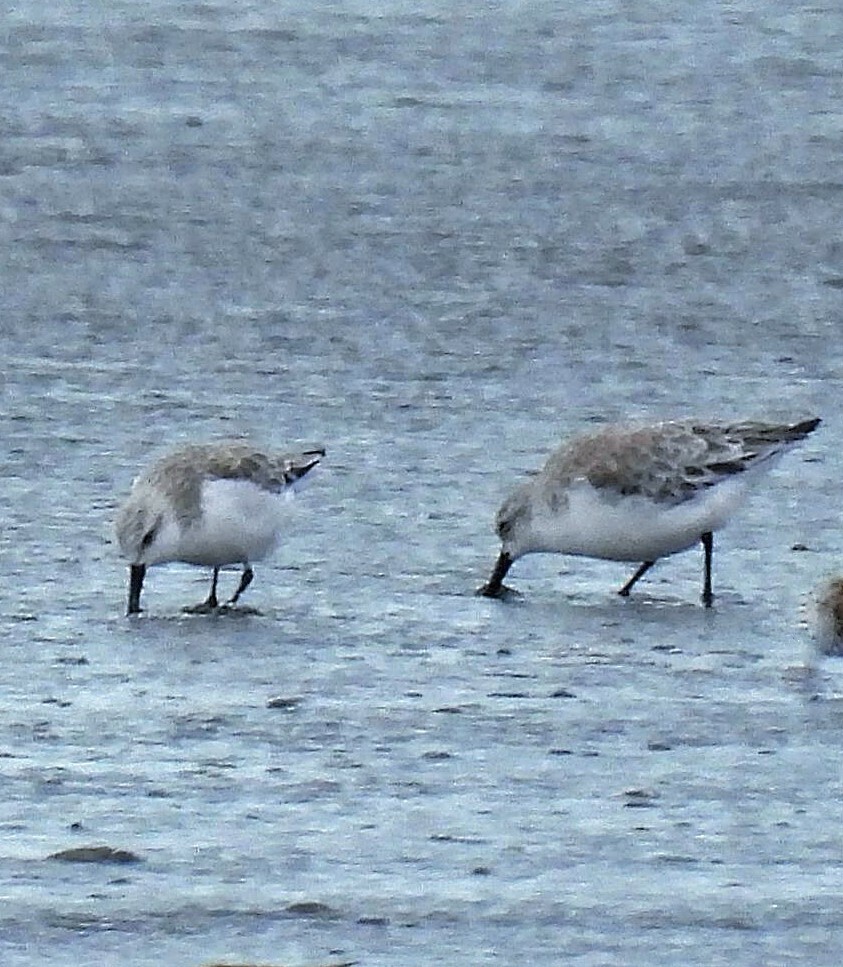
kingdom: Animalia
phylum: Chordata
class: Aves
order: Charadriiformes
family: Scolopacidae
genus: Calidris
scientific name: Calidris alba
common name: Sanderling
